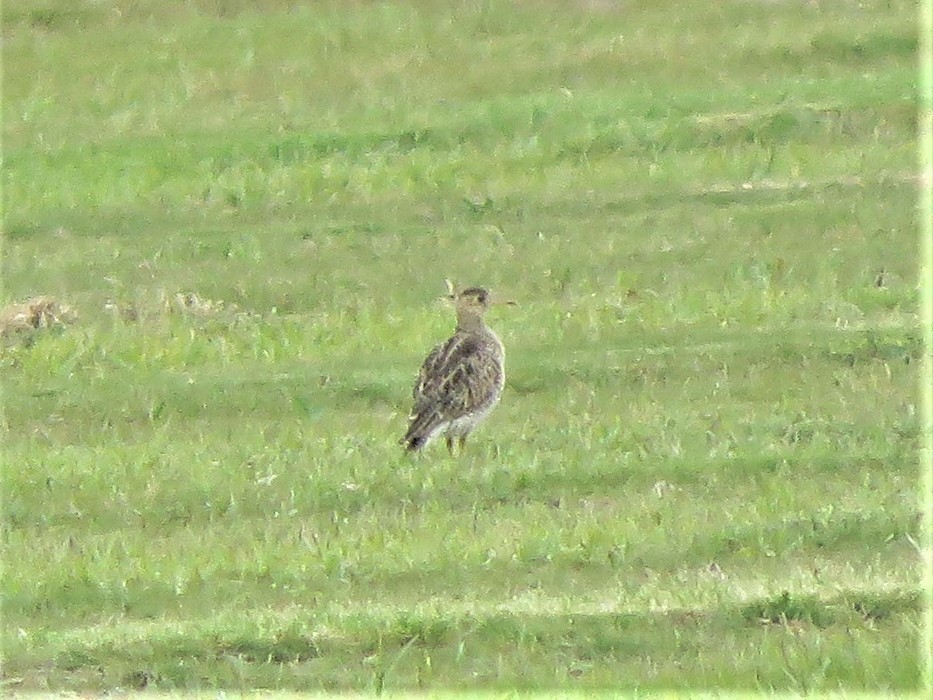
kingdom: Animalia
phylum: Chordata
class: Aves
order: Charadriiformes
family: Scolopacidae
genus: Bartramia
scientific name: Bartramia longicauda
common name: Upland sandpiper
